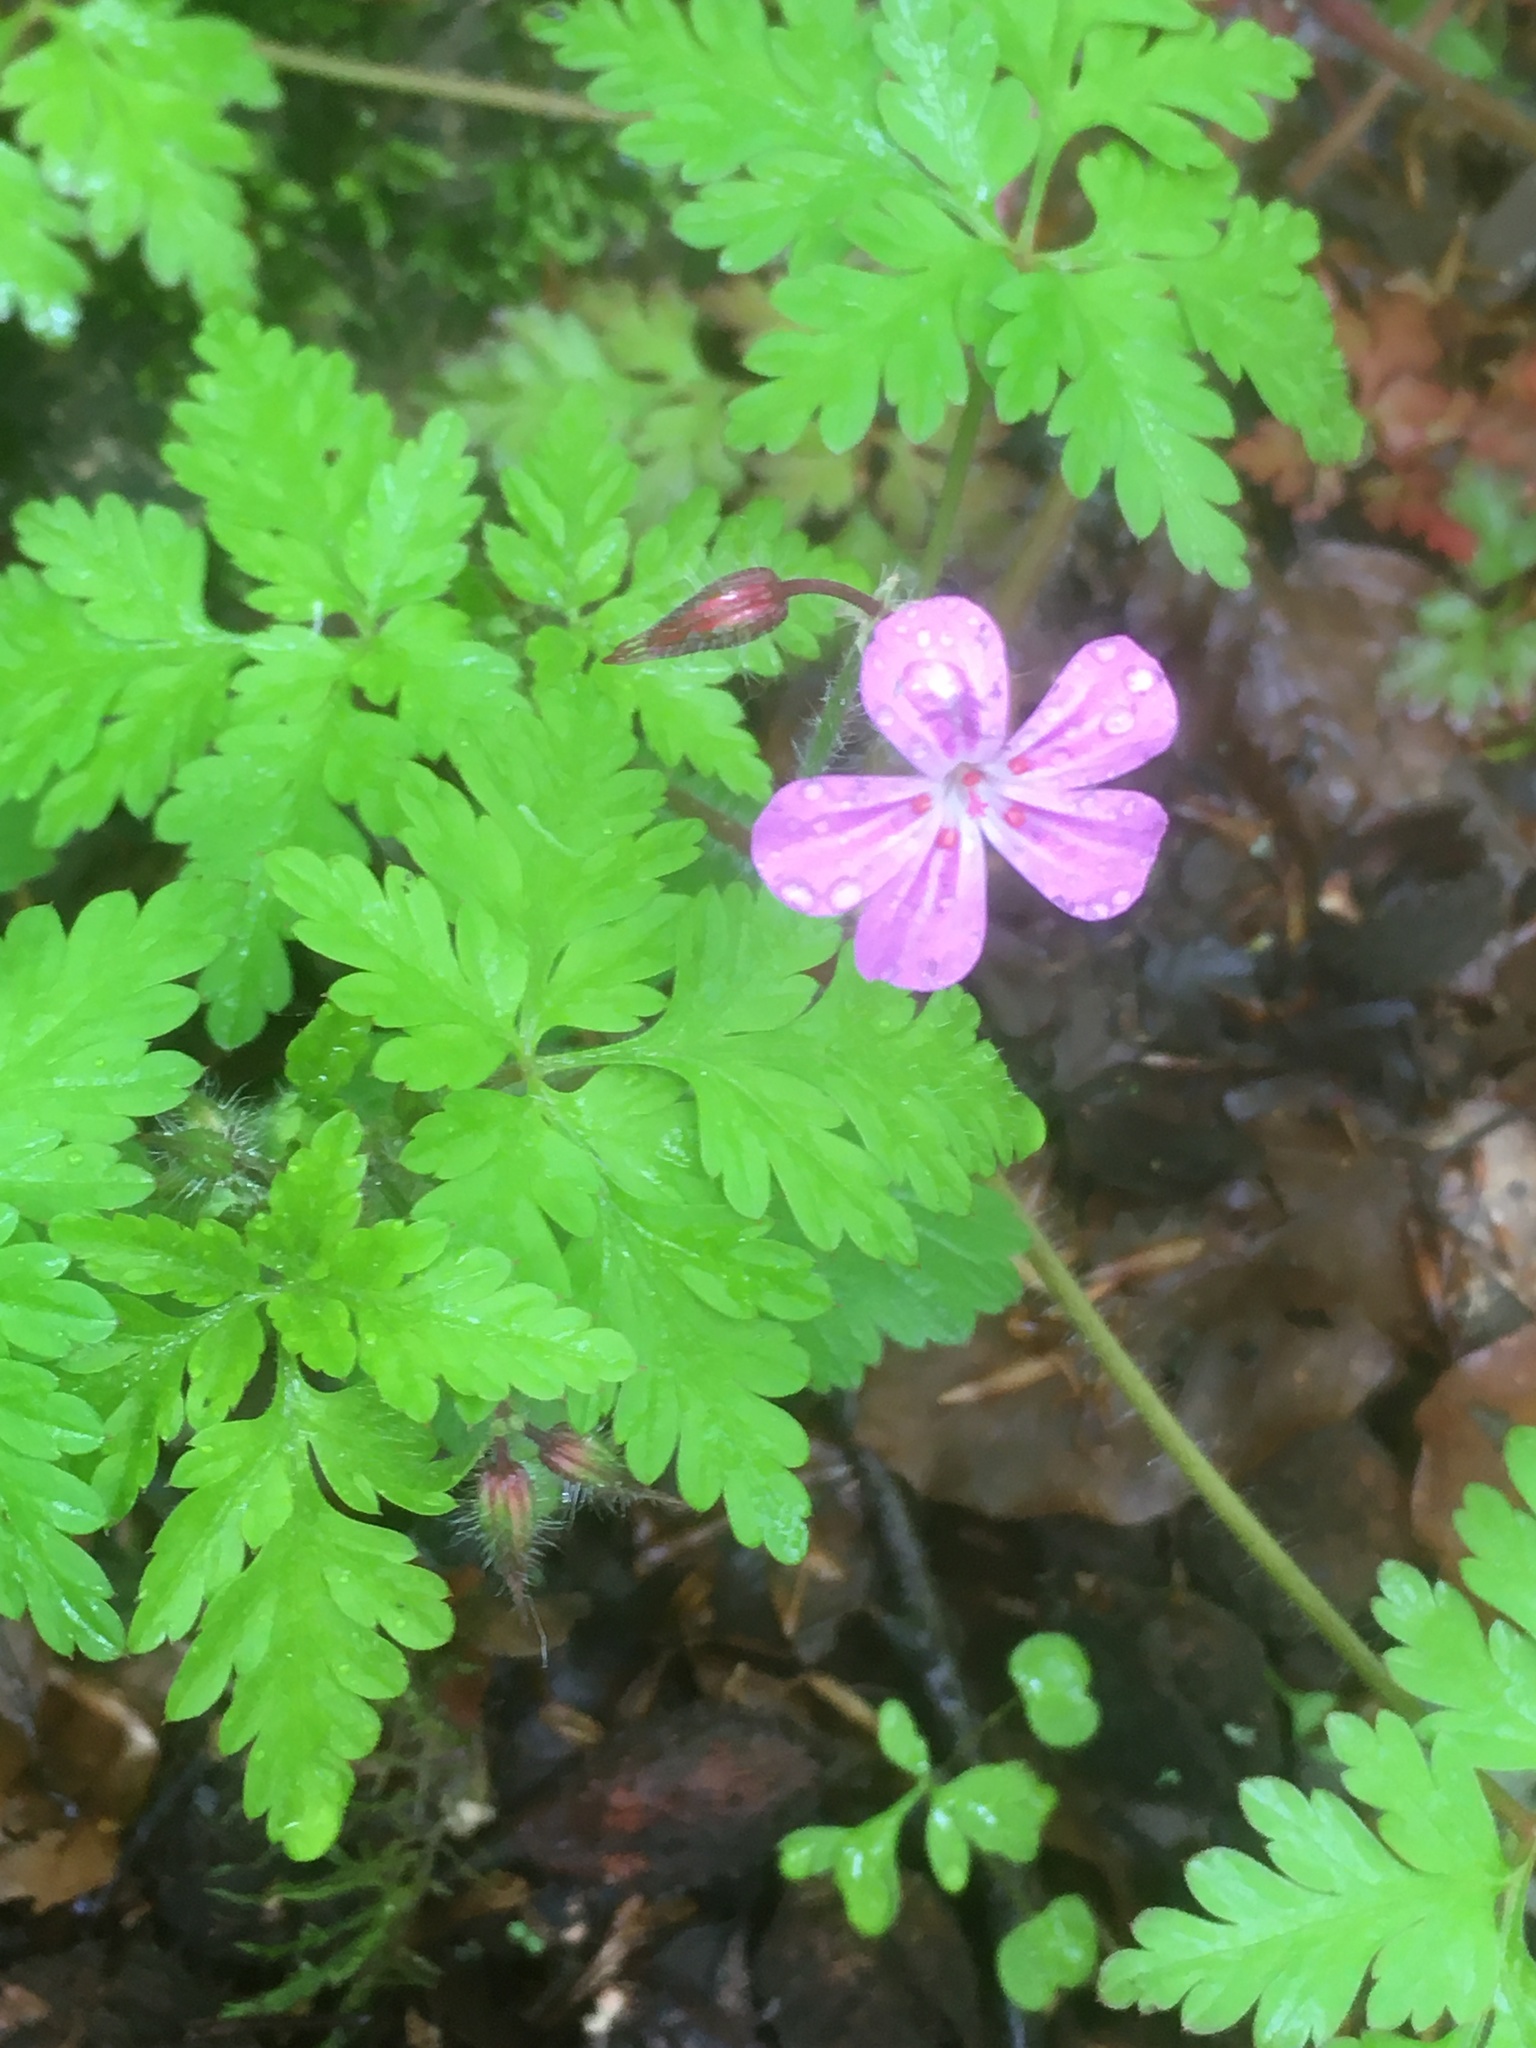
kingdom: Plantae
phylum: Tracheophyta
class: Magnoliopsida
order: Geraniales
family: Geraniaceae
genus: Geranium
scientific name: Geranium robertianum
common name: Herb-robert
